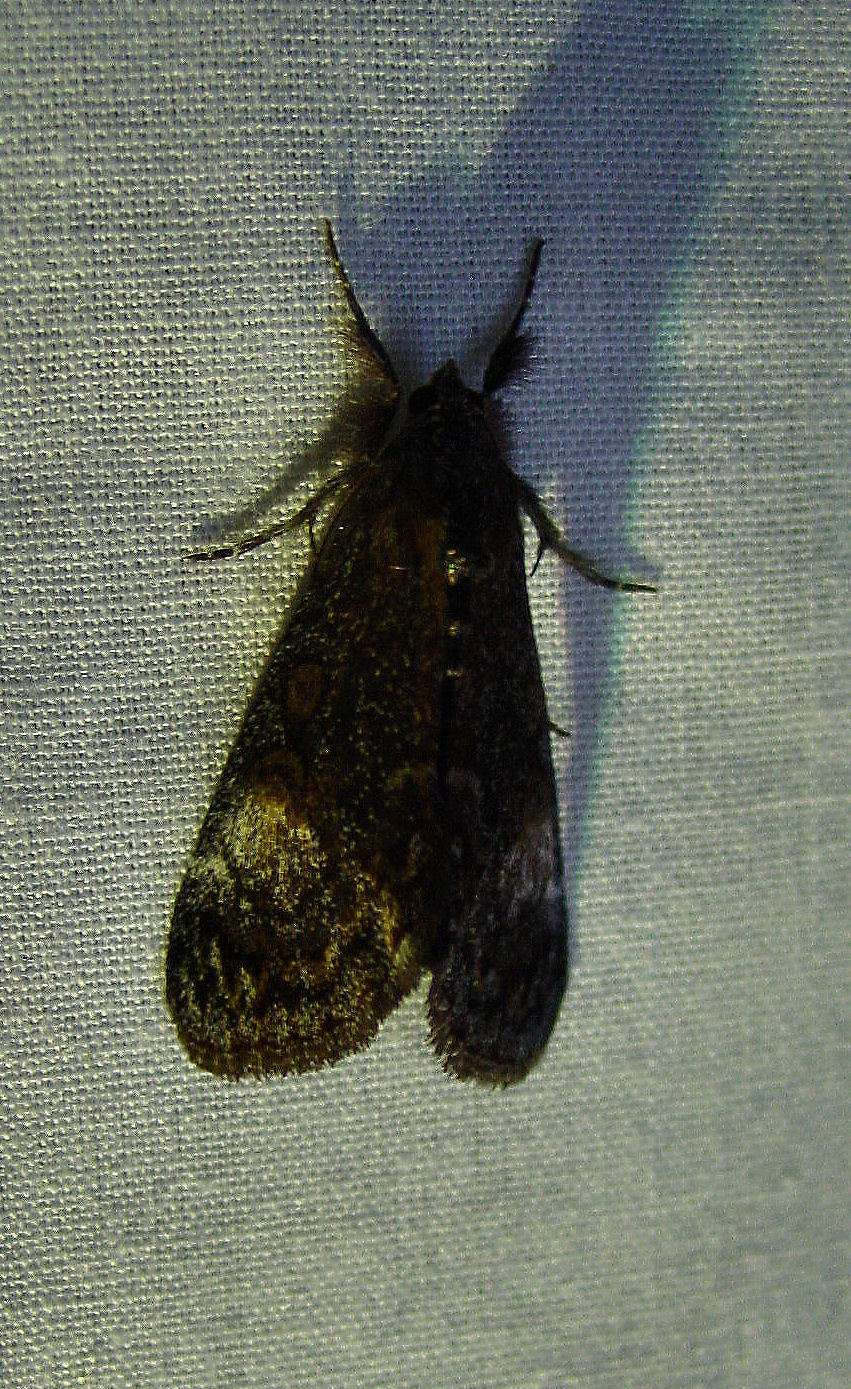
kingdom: Animalia
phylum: Arthropoda
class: Insecta
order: Lepidoptera
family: Noctuidae
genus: Gerra
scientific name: Gerra sevorsa
